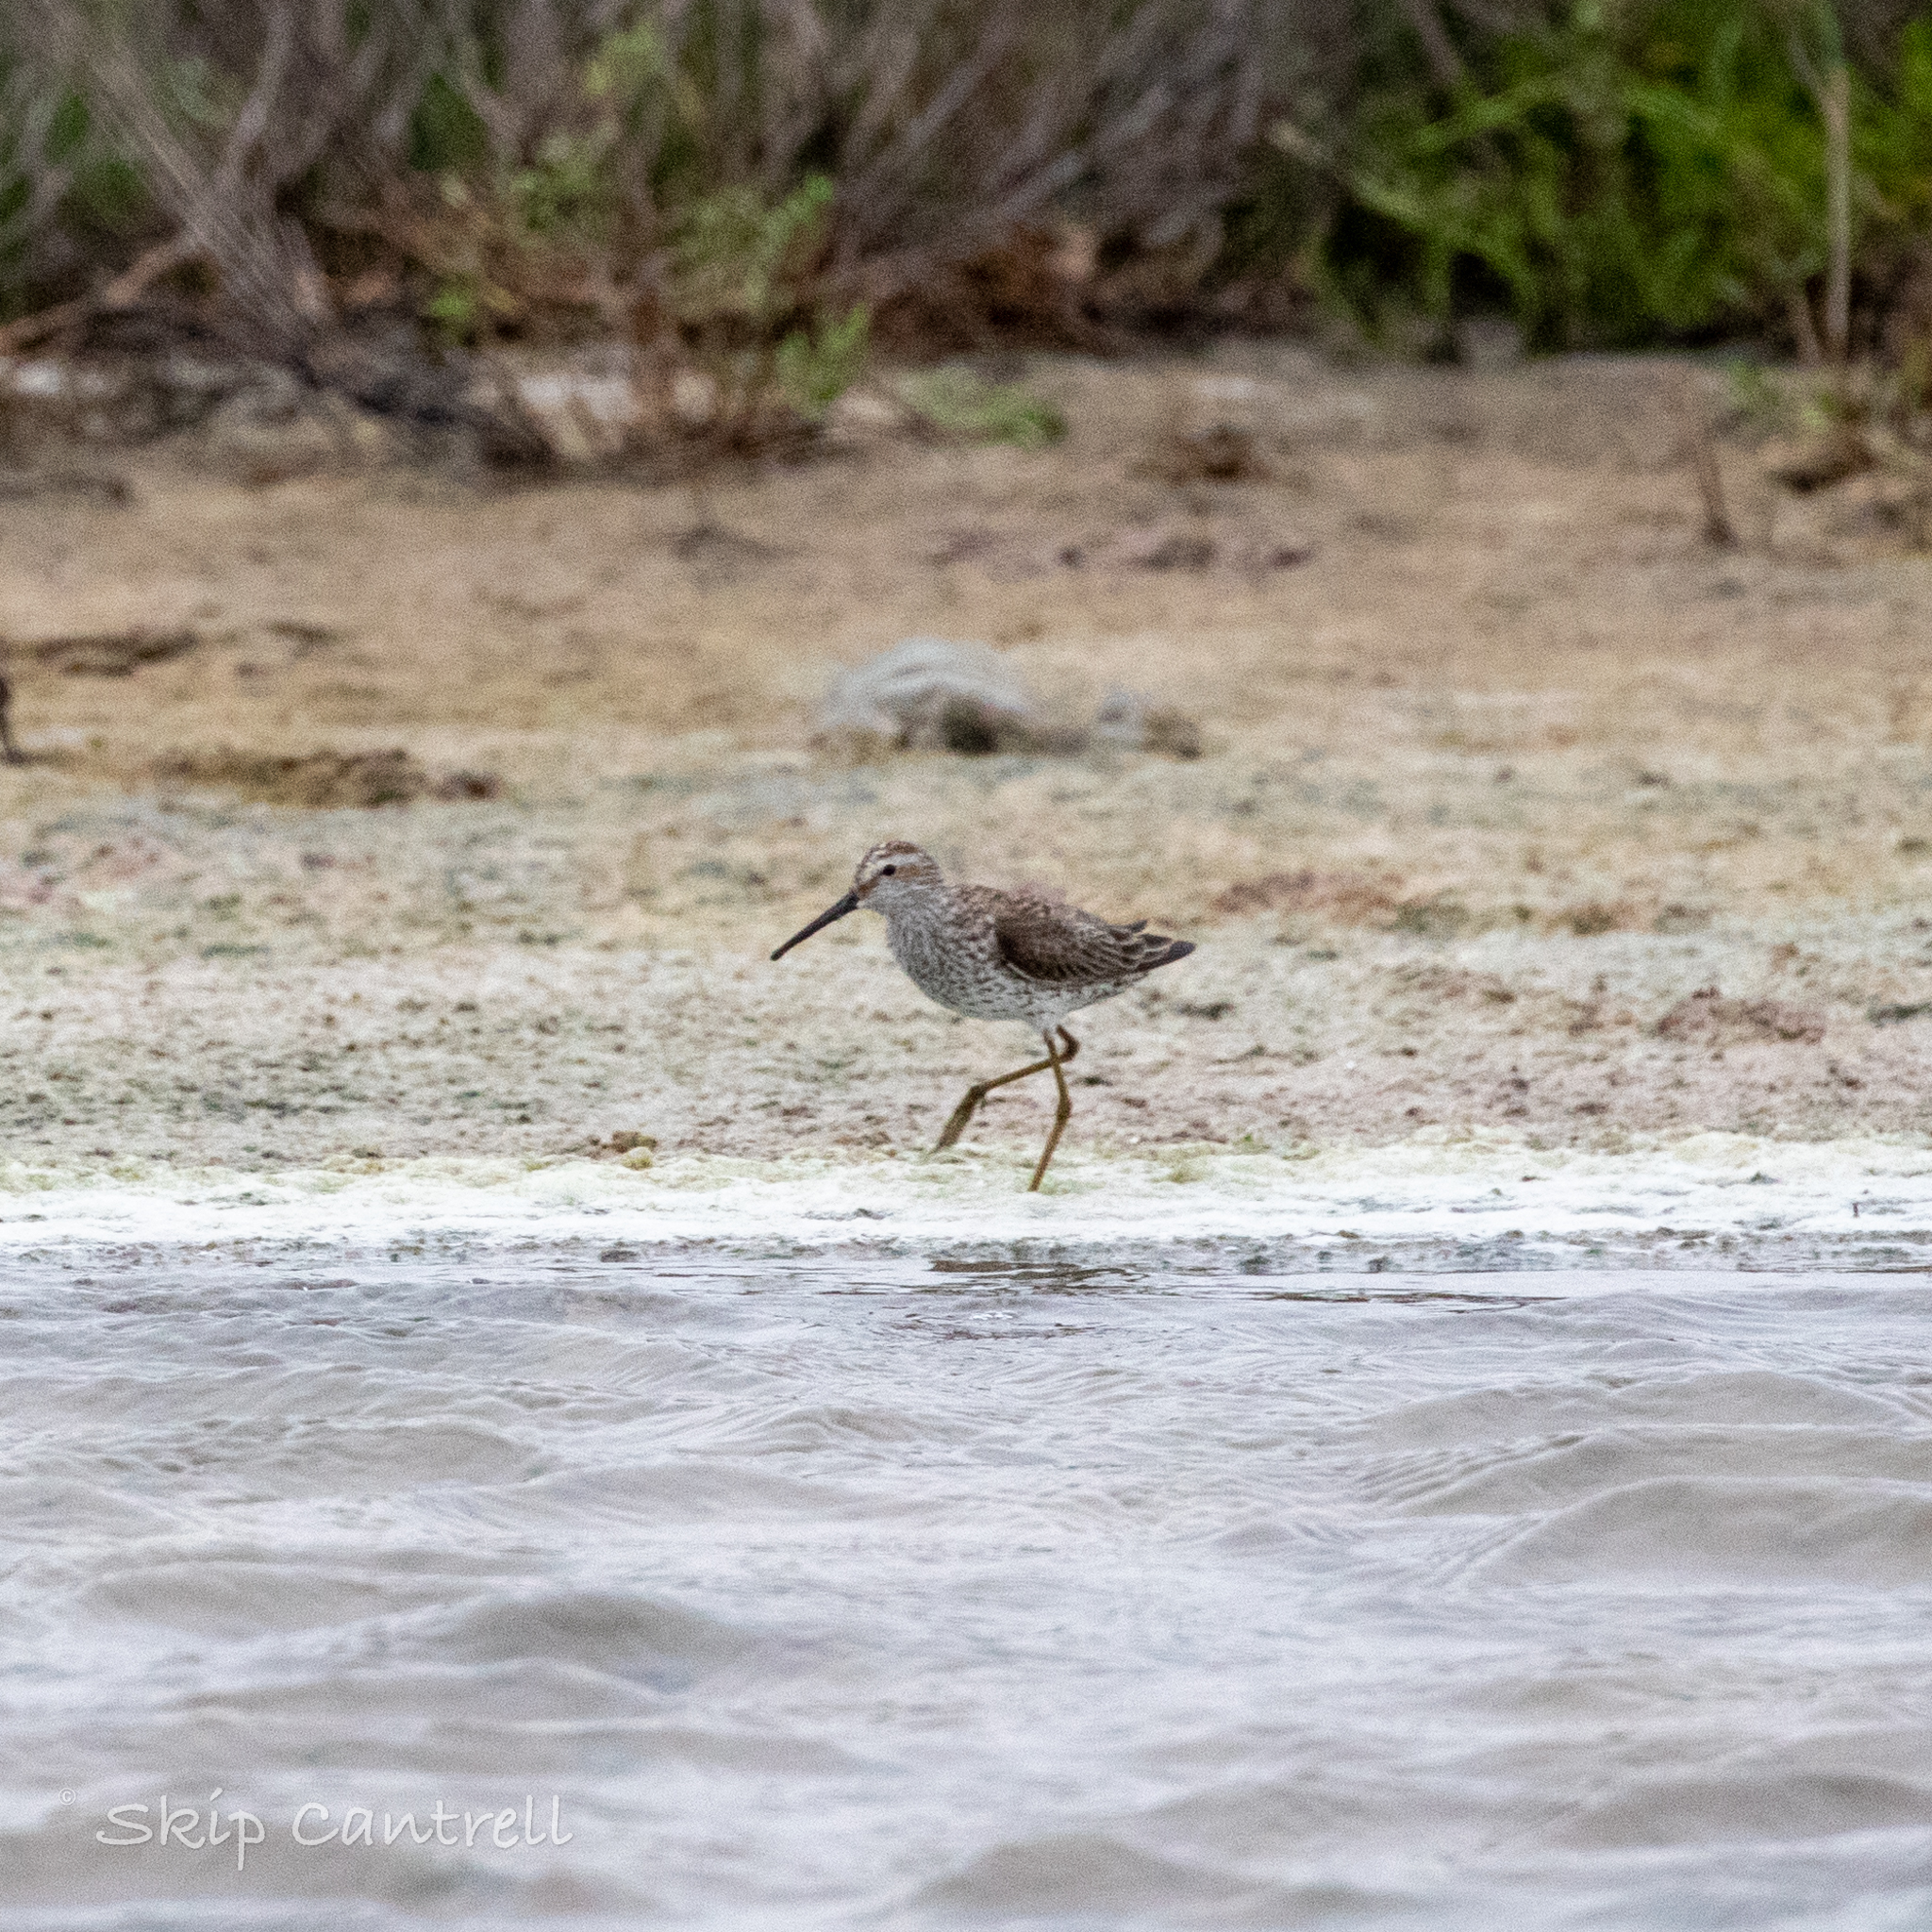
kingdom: Animalia
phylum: Chordata
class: Aves
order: Charadriiformes
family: Scolopacidae
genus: Calidris
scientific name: Calidris himantopus
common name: Stilt sandpiper
